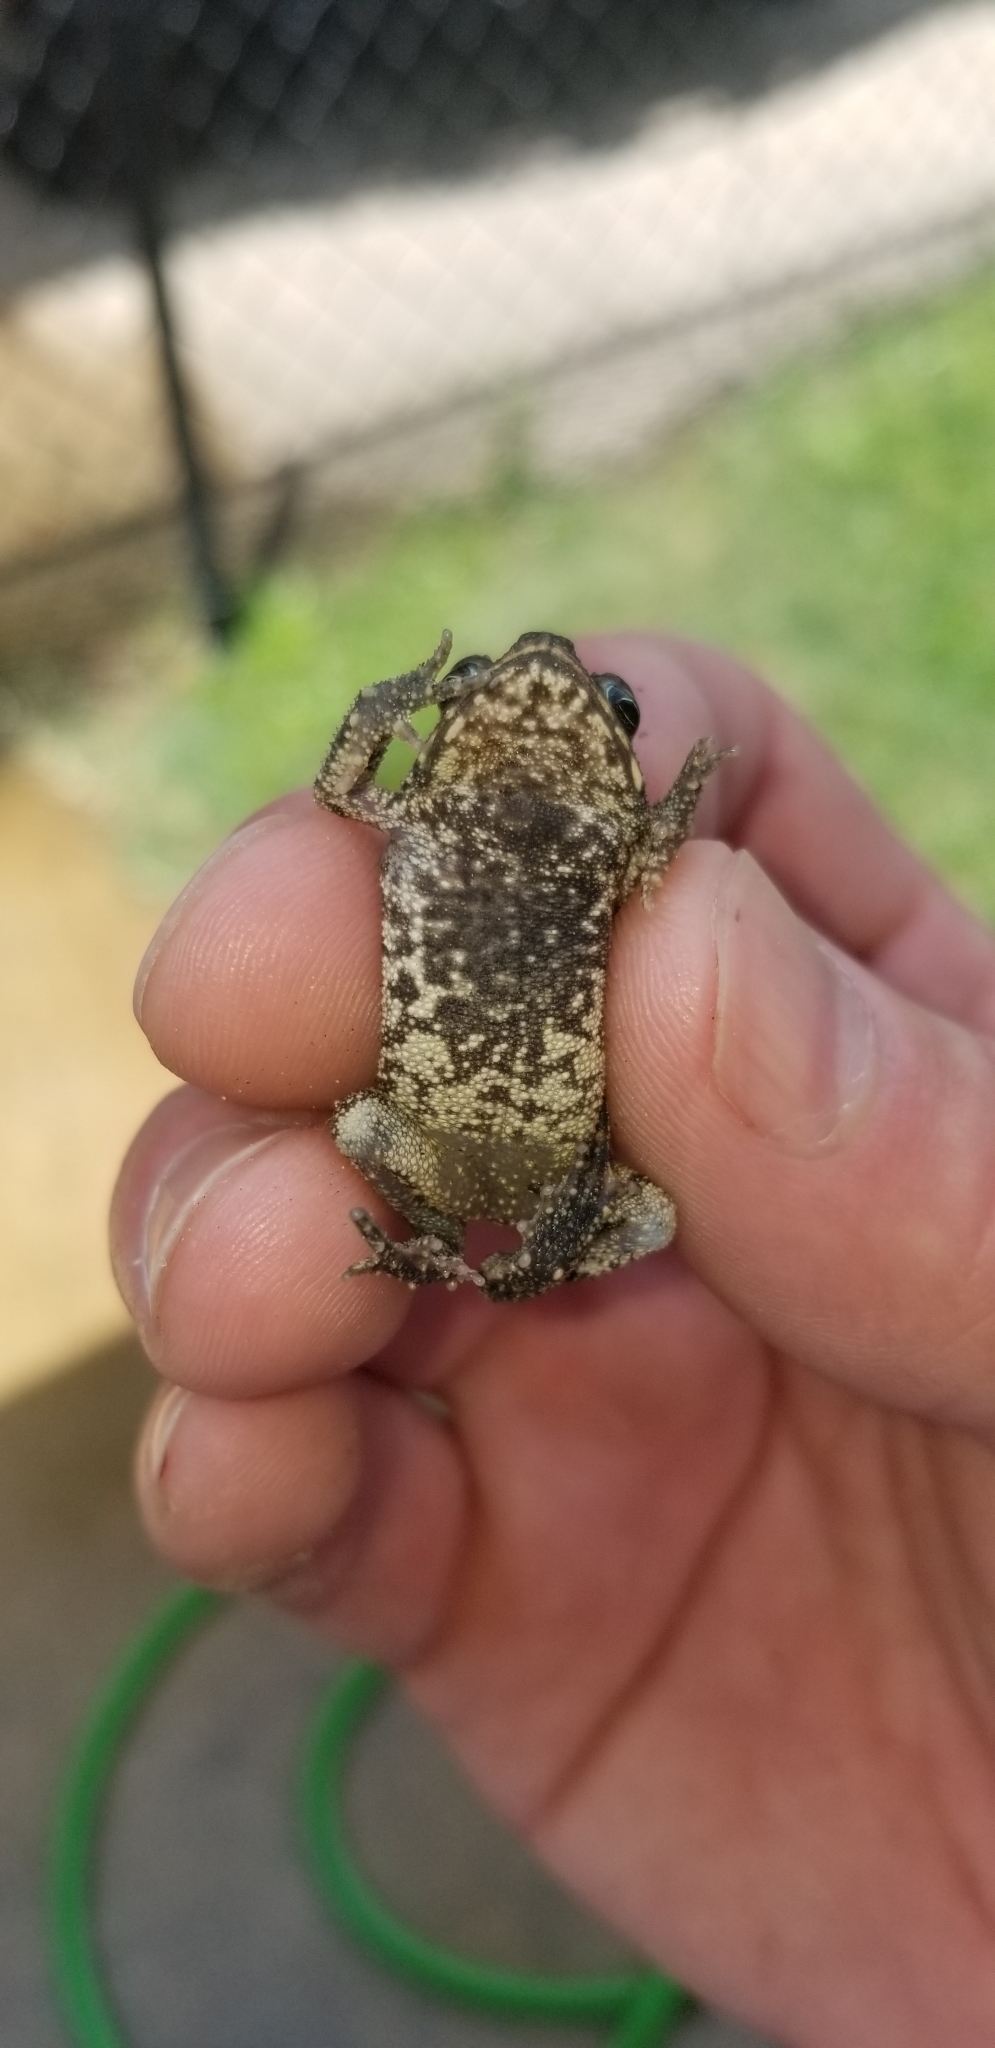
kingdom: Animalia
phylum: Chordata
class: Amphibia
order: Anura
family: Bufonidae
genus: Incilius
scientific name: Incilius nebulifer
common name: Gulf coast toad
